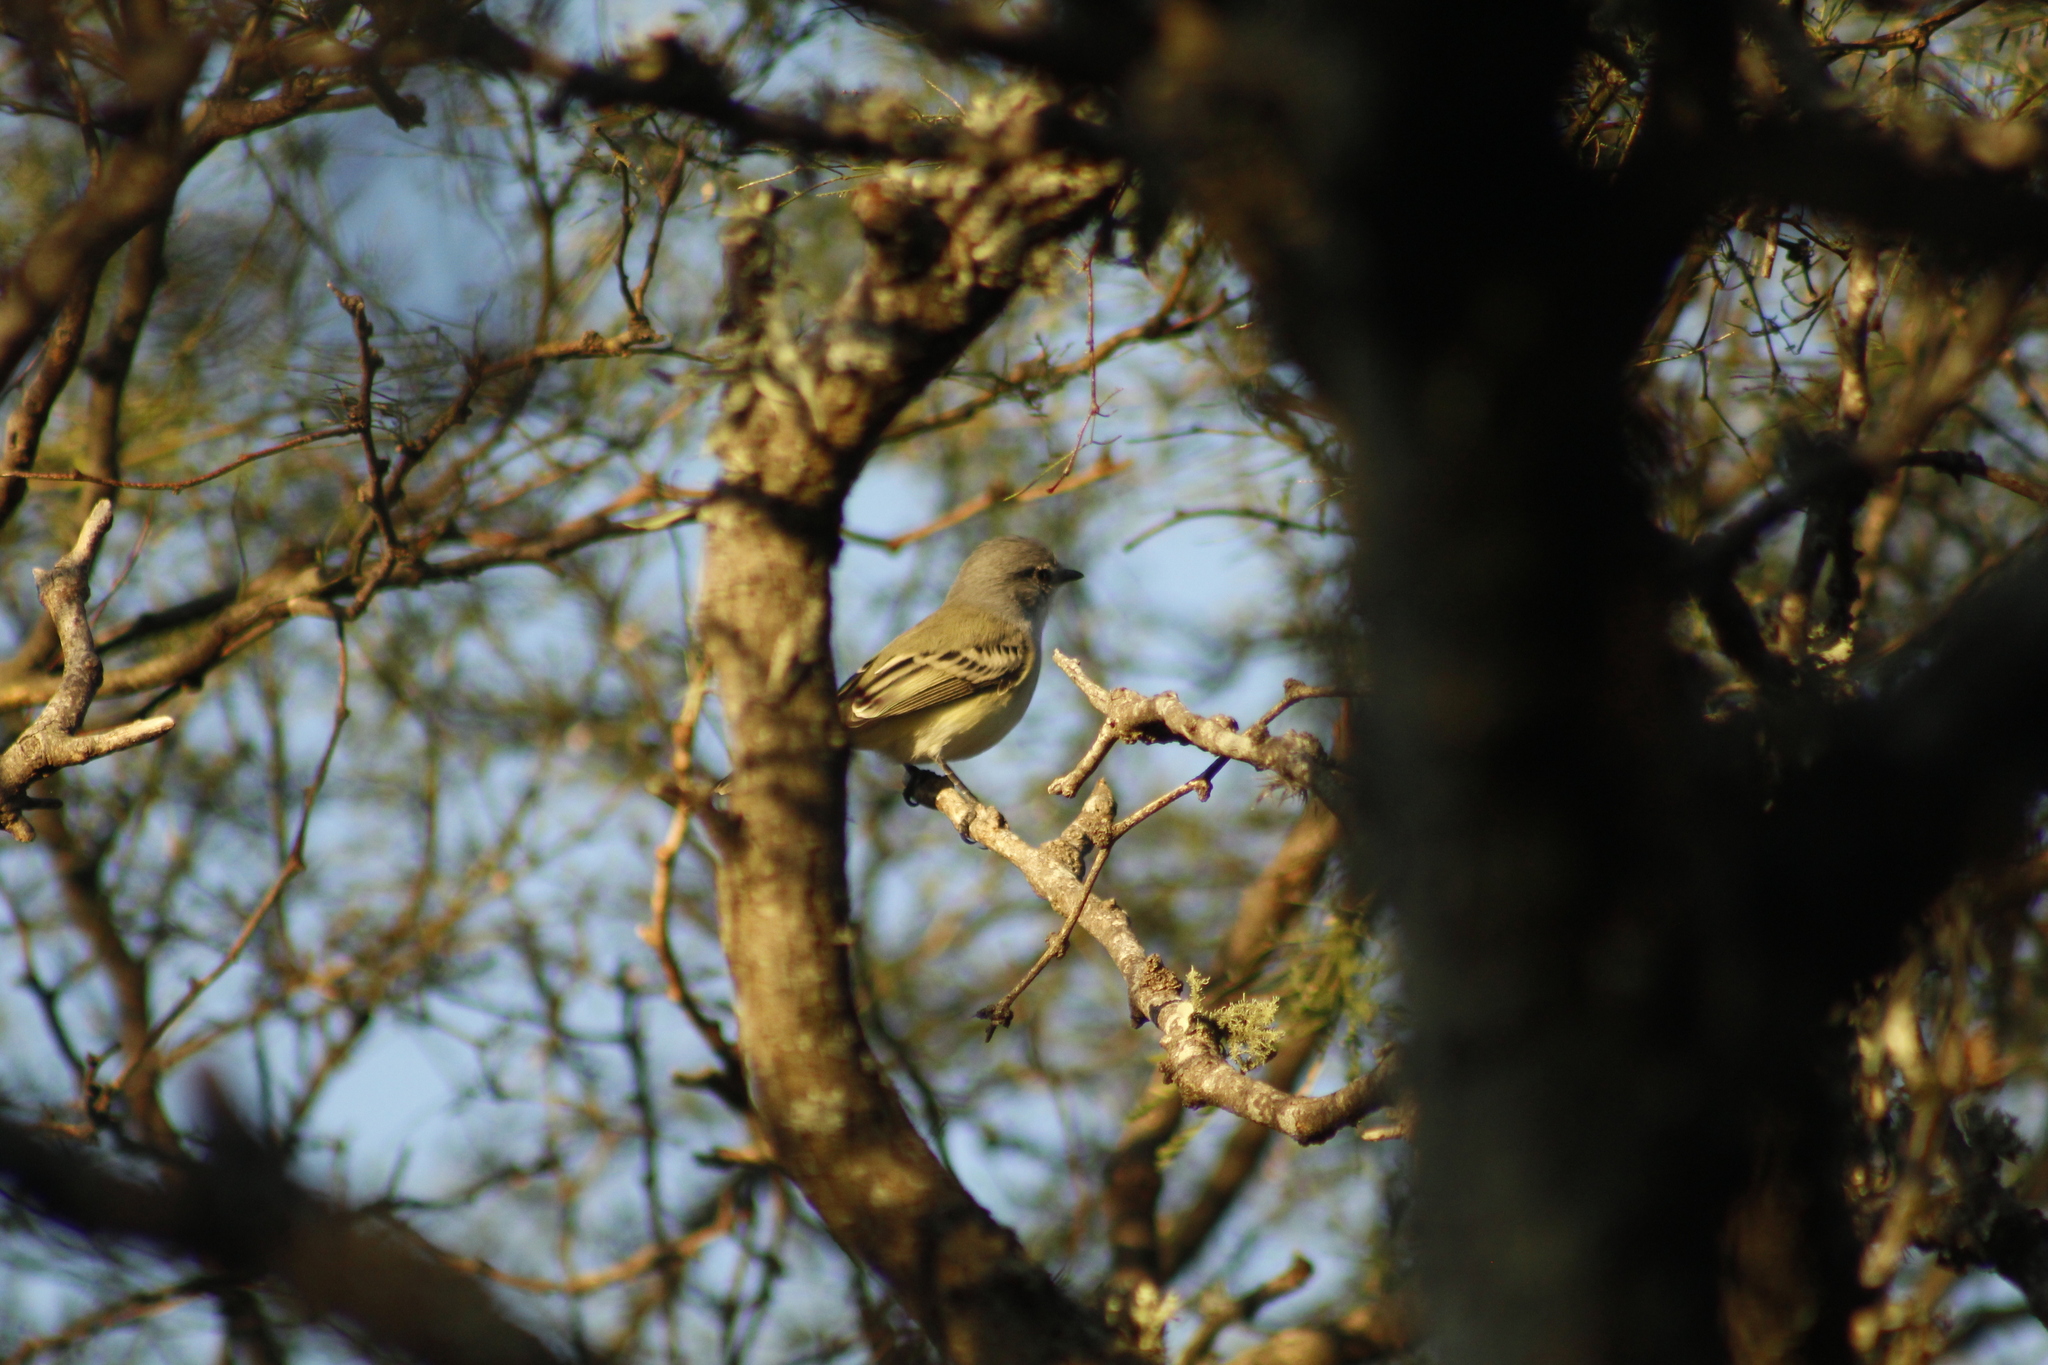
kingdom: Animalia
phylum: Chordata
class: Aves
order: Passeriformes
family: Tyrannidae
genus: Suiriri
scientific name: Suiriri suiriri
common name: Suiriri flycatcher
